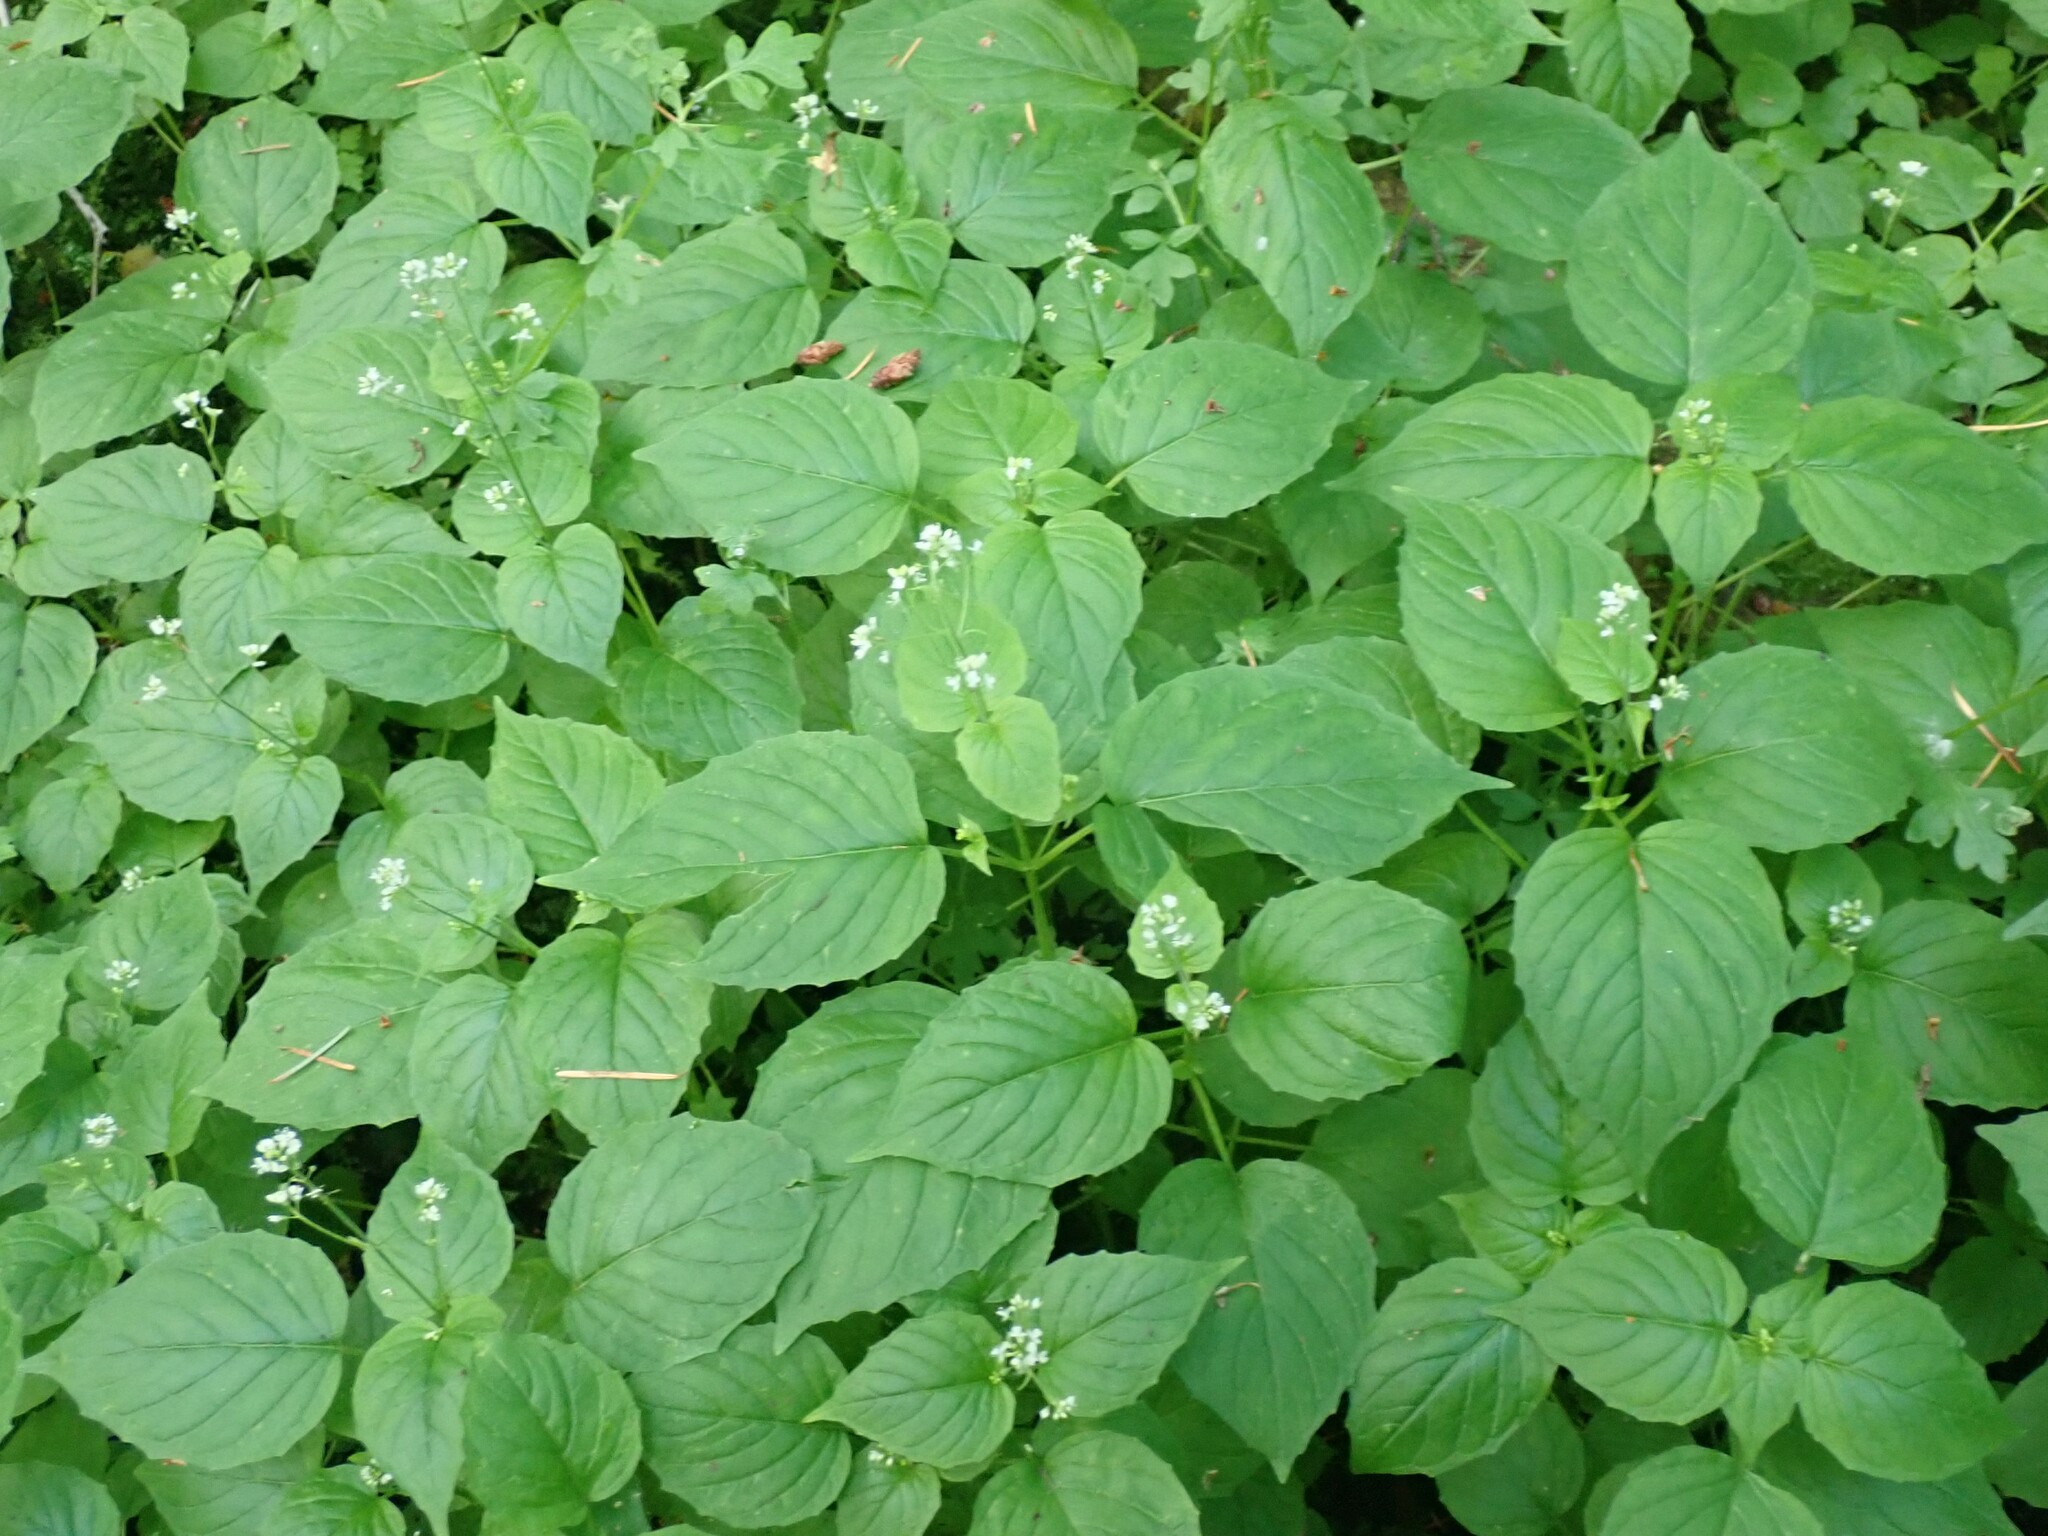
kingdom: Plantae
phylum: Tracheophyta
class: Magnoliopsida
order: Myrtales
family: Onagraceae
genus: Circaea
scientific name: Circaea alpina
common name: Alpine enchanter's-nightshade
